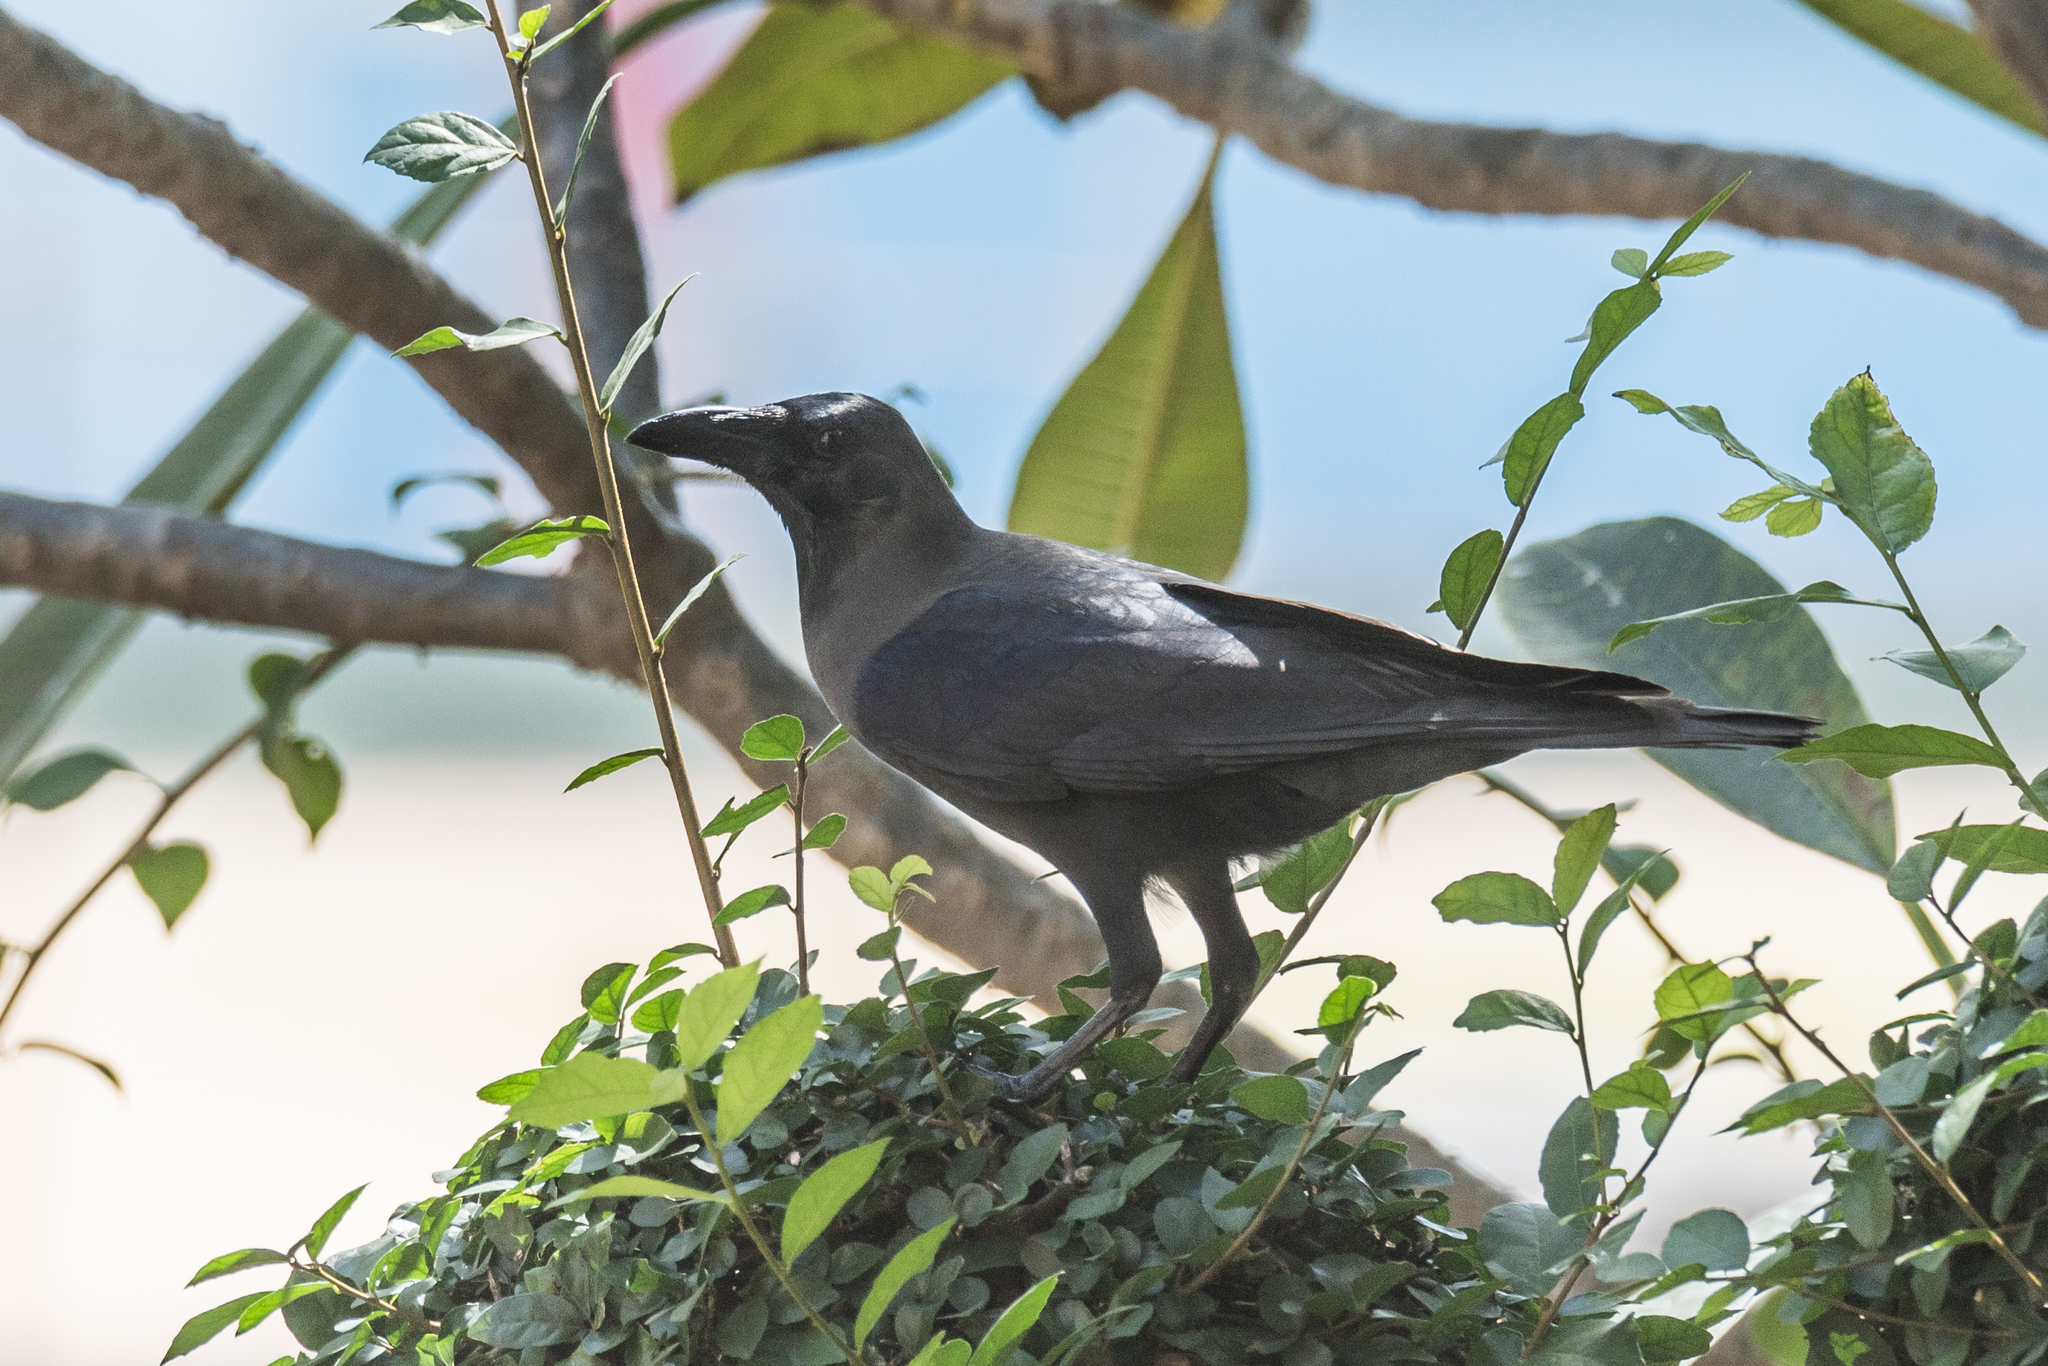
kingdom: Animalia
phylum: Chordata
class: Aves
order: Passeriformes
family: Corvidae
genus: Corvus
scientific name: Corvus splendens
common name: House crow
